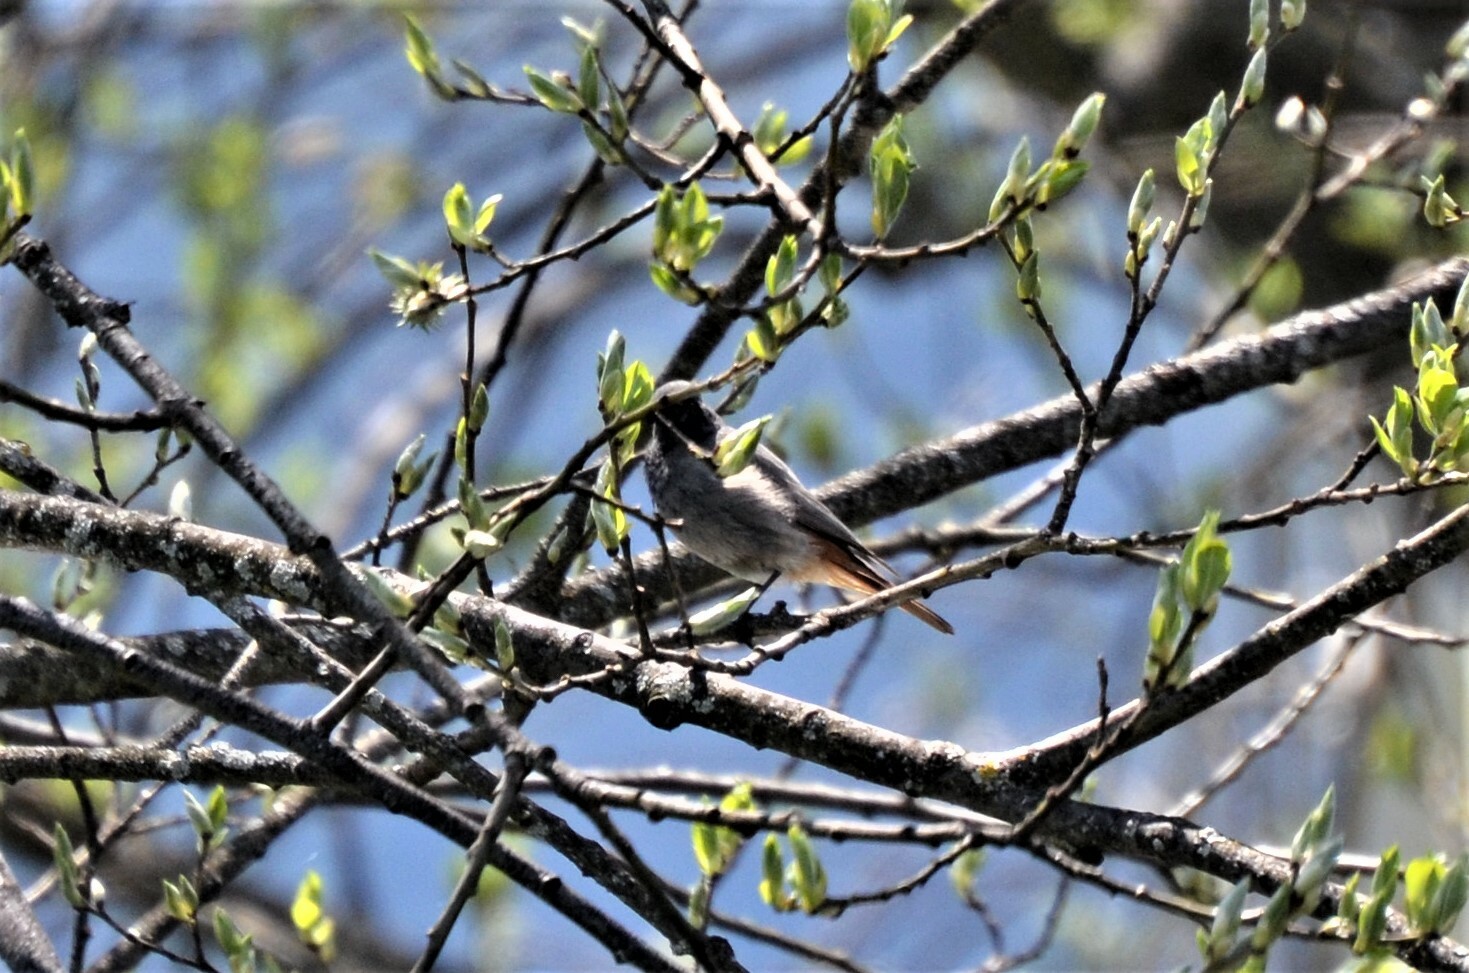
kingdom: Animalia
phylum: Chordata
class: Aves
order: Passeriformes
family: Muscicapidae
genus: Phoenicurus
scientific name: Phoenicurus ochruros
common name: Black redstart
